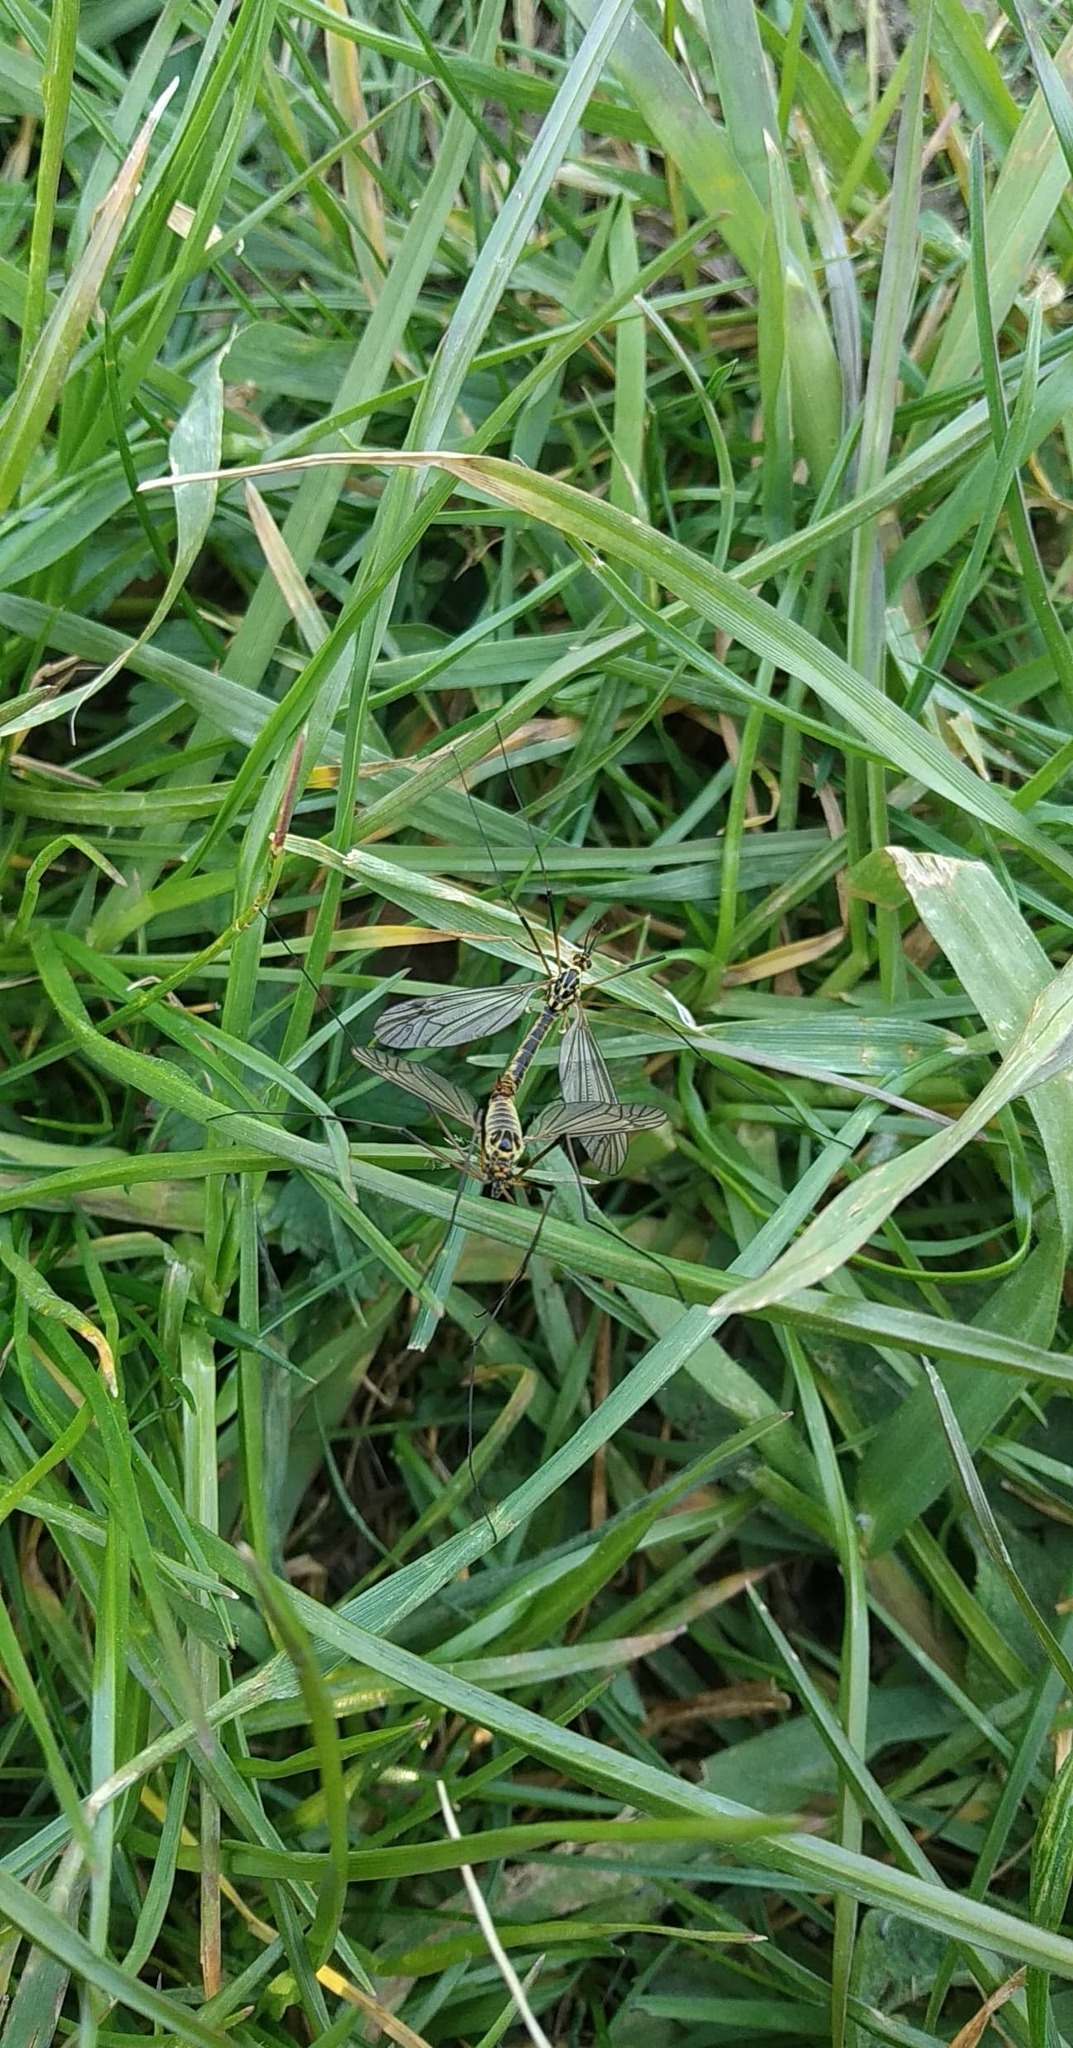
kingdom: Animalia
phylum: Arthropoda
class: Insecta
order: Diptera
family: Tipulidae
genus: Nephrotoma
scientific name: Nephrotoma appendiculata
